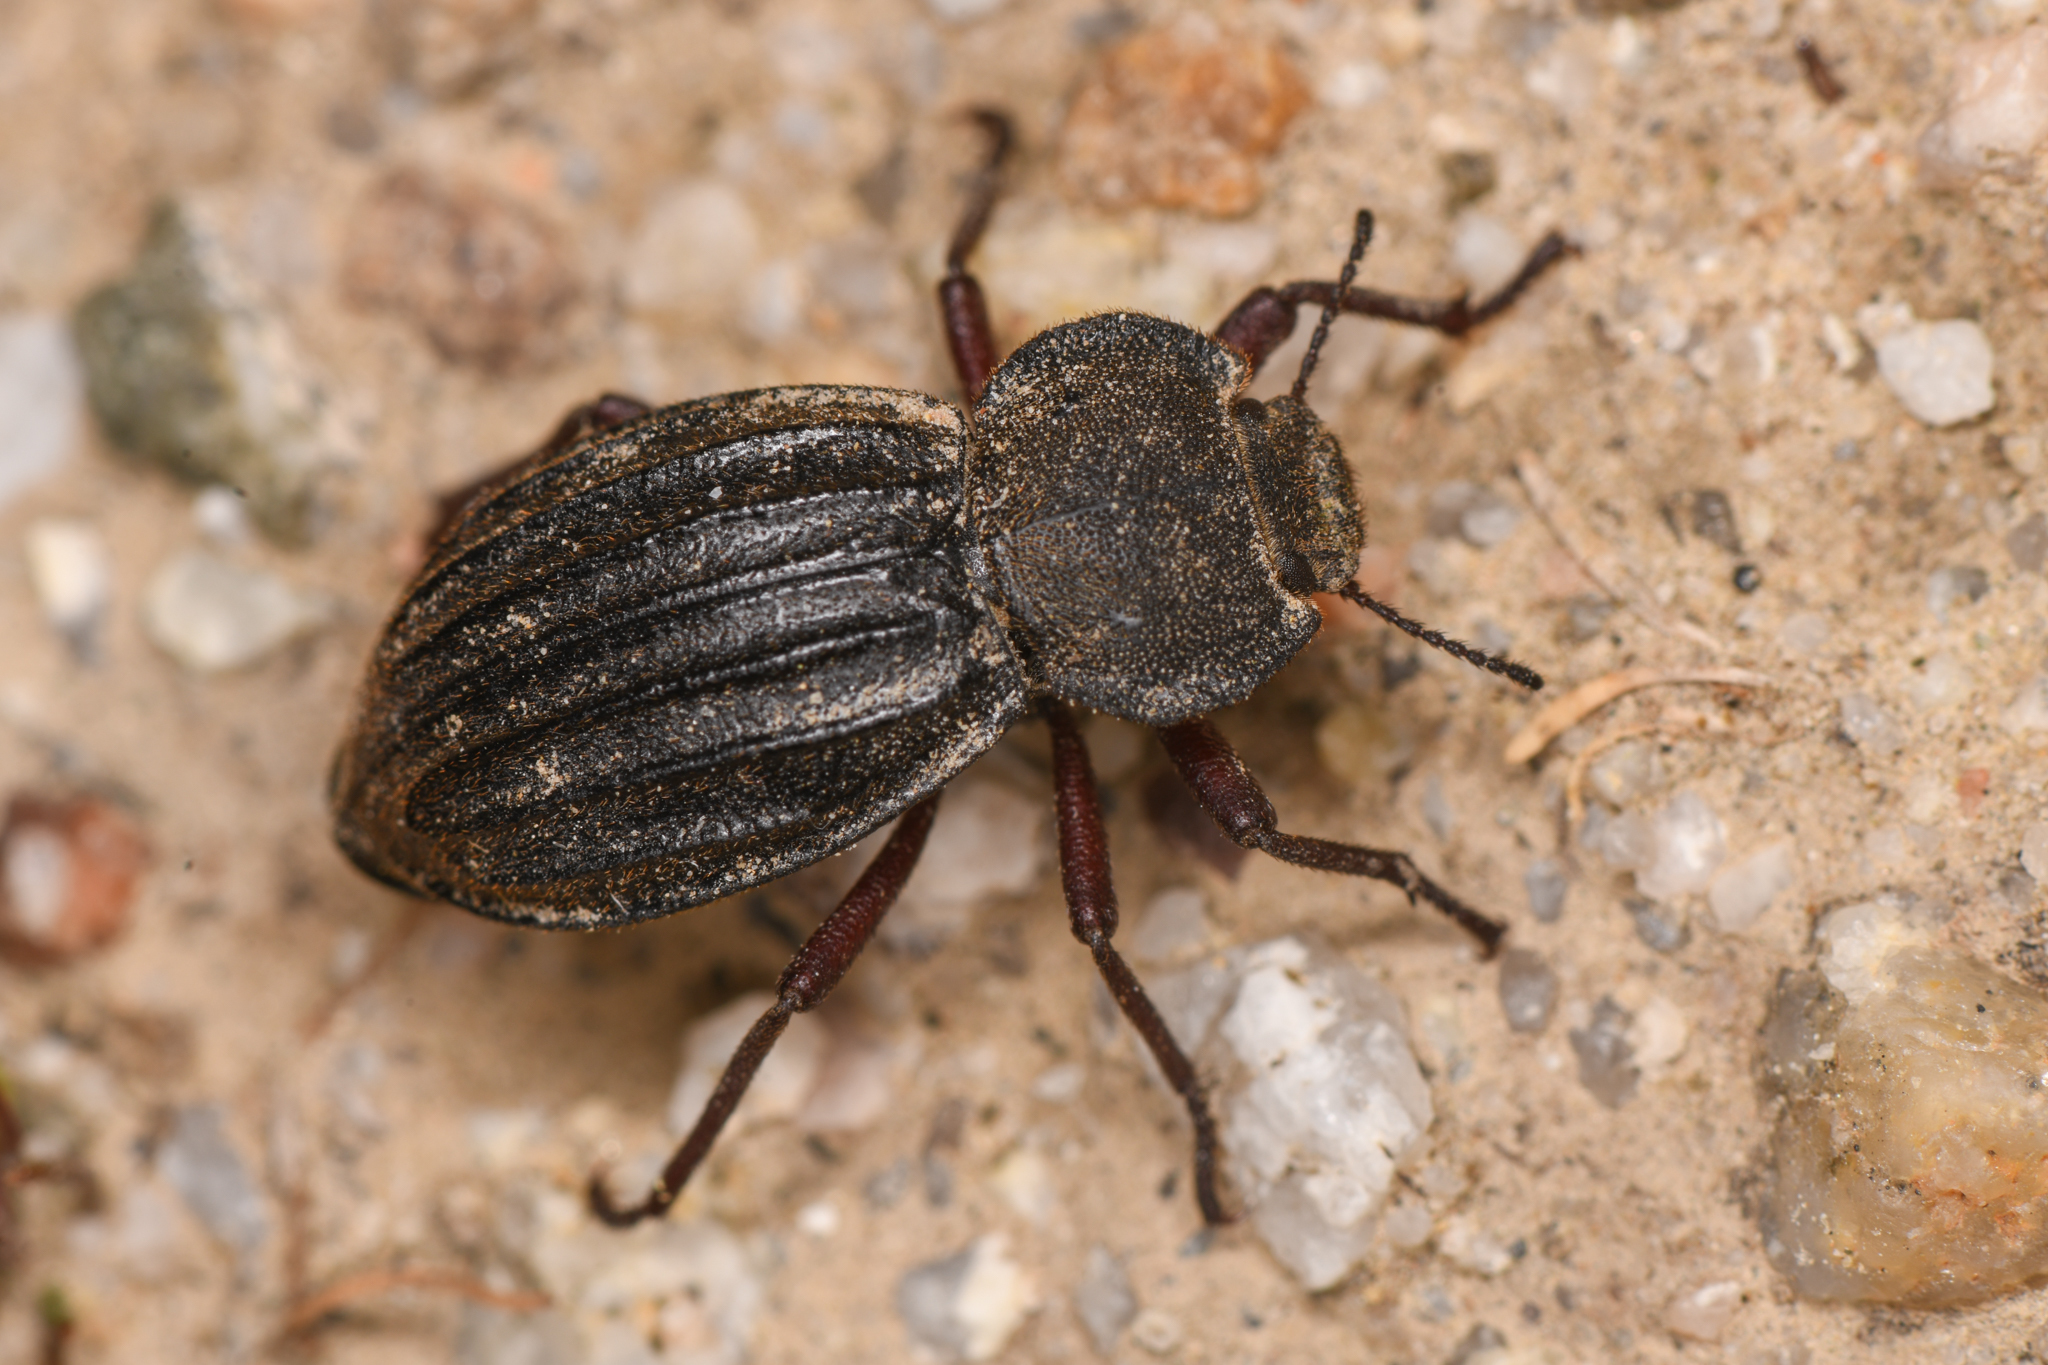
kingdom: Animalia
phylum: Arthropoda
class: Insecta
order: Coleoptera
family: Tenebrionidae
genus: Stenomorpha
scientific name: Stenomorpha mckittricki
